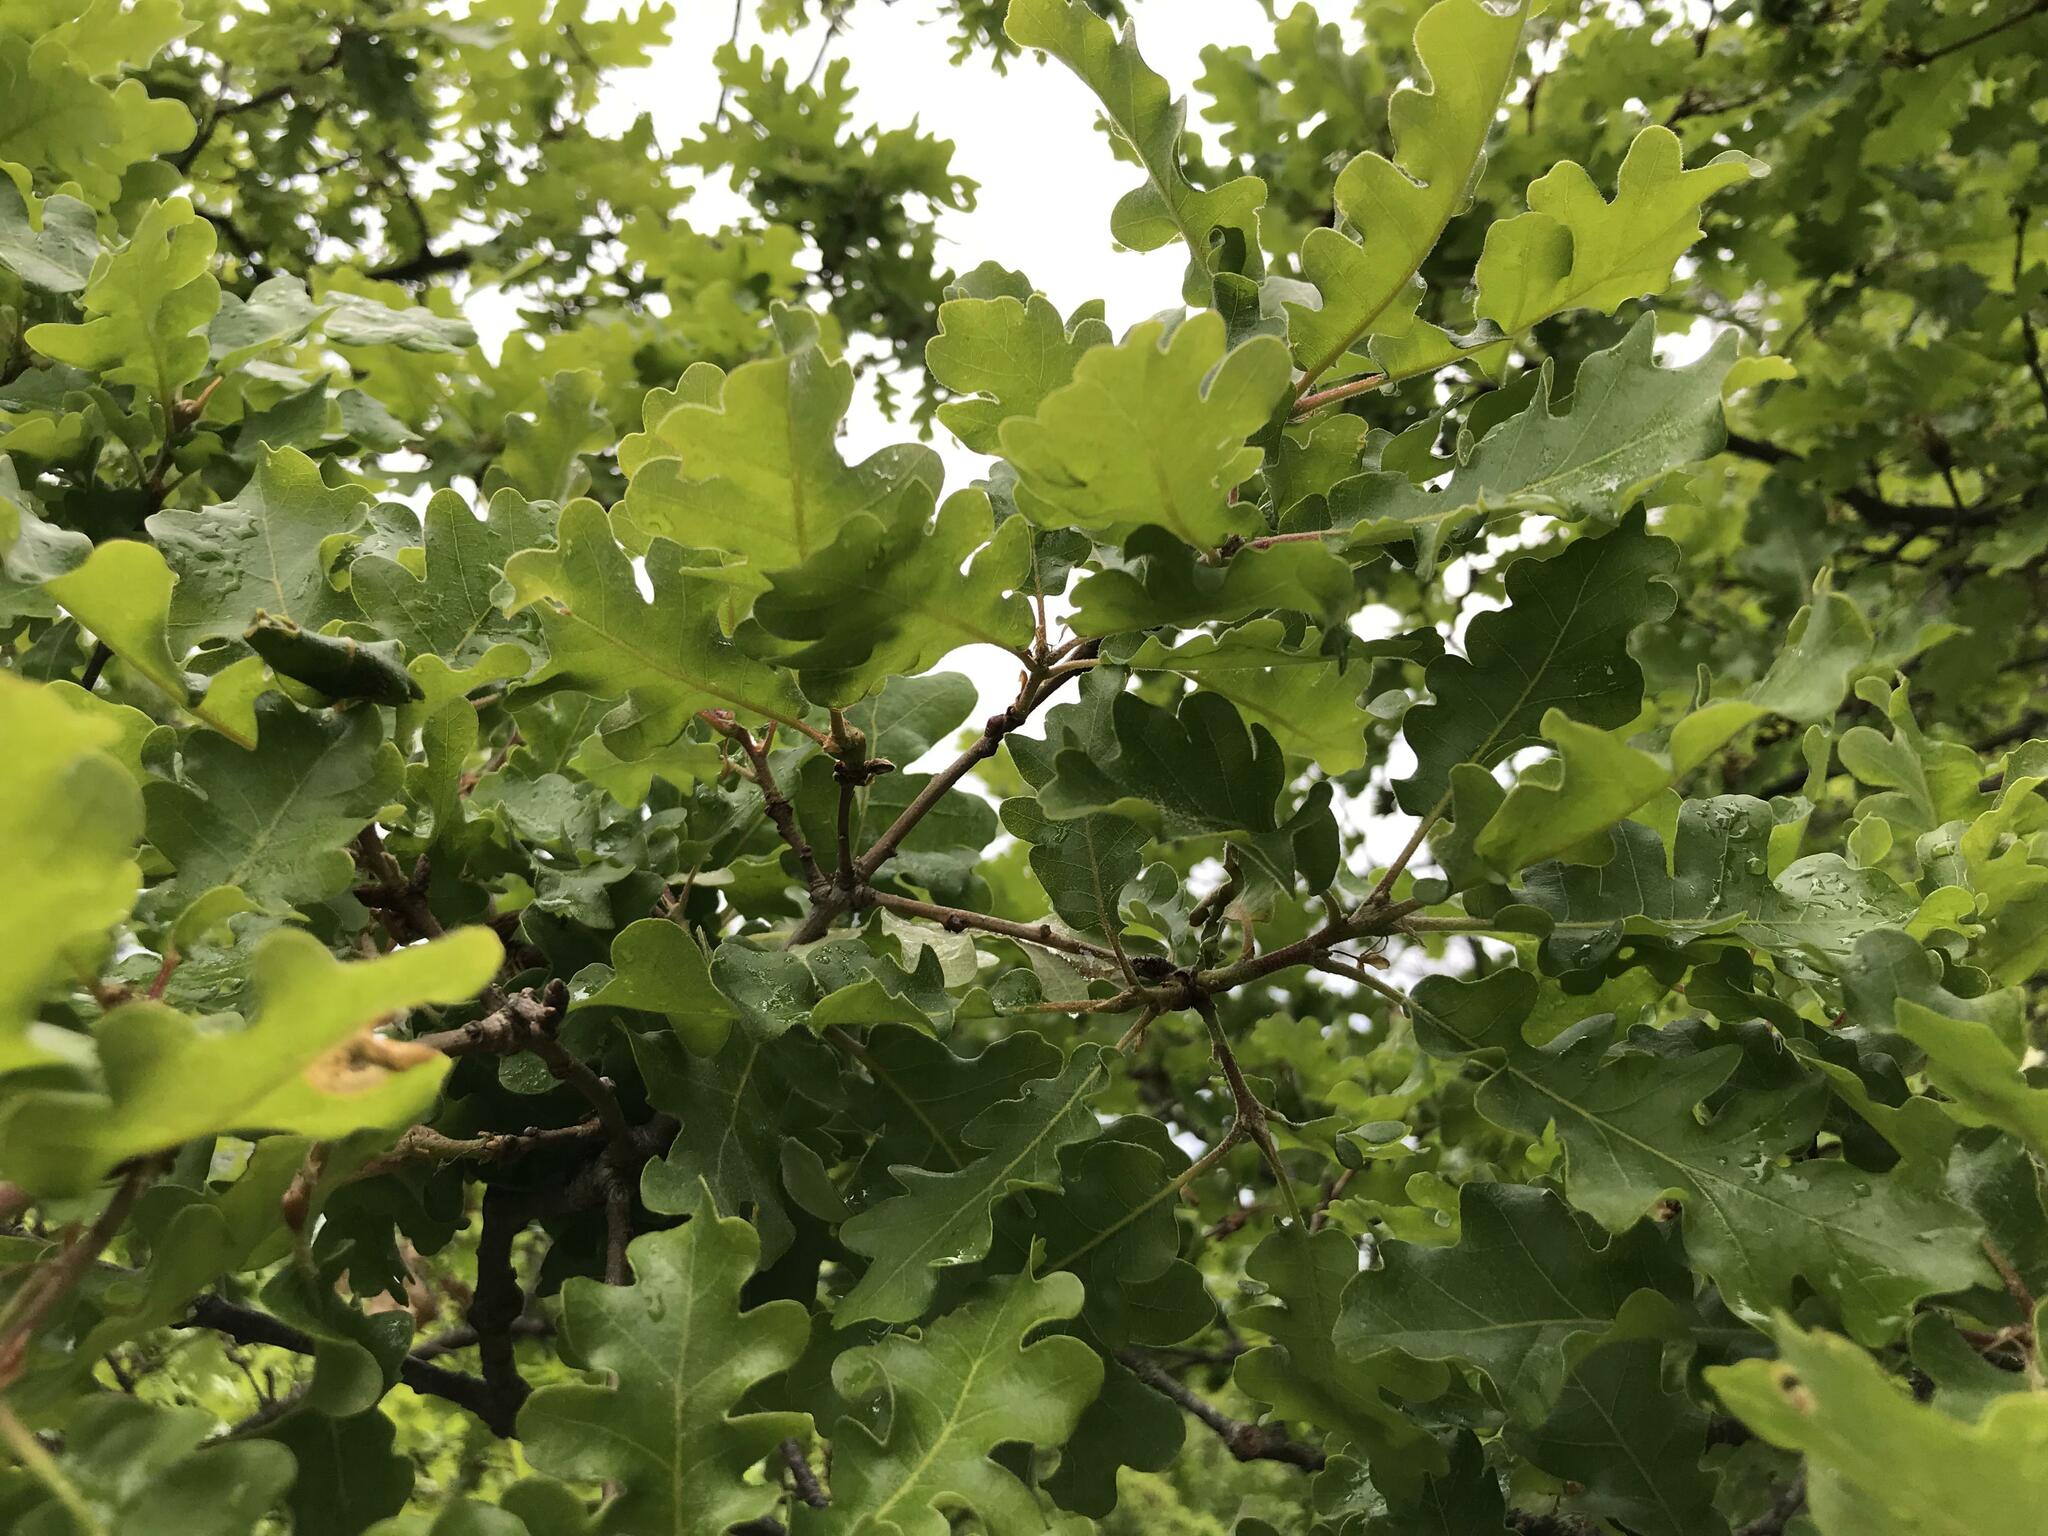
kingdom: Plantae
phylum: Tracheophyta
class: Magnoliopsida
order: Fagales
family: Fagaceae
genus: Quercus
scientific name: Quercus pubescens
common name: Downy oak
